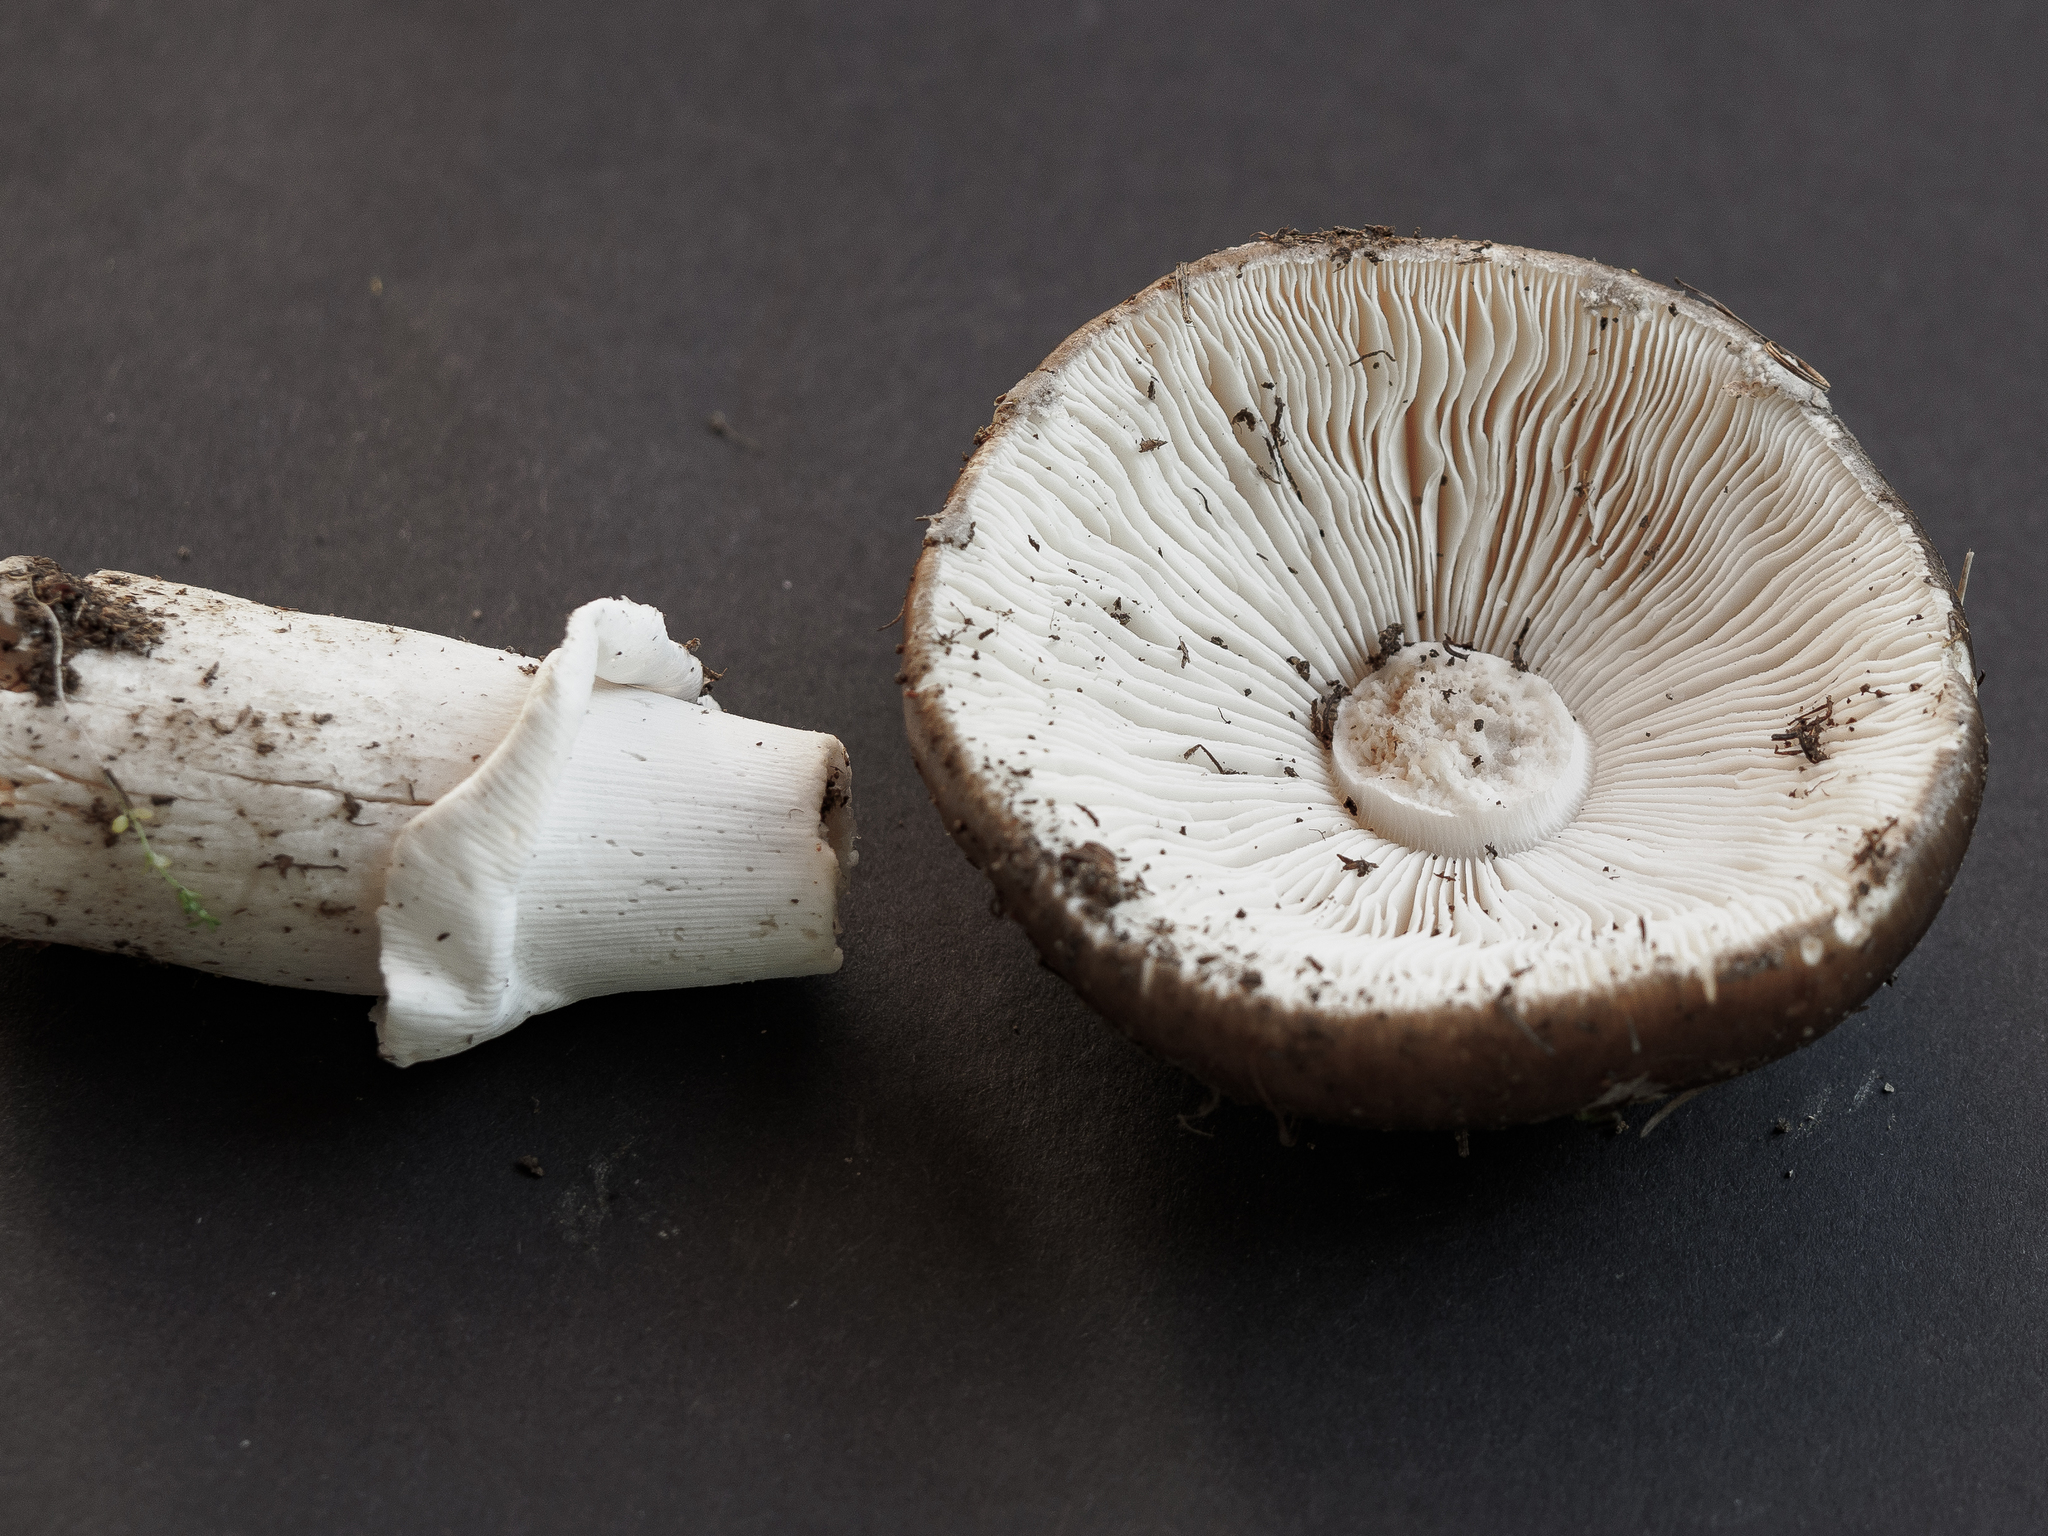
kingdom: Fungi
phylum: Basidiomycota
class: Agaricomycetes
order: Agaricales
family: Amanitaceae
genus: Amanita
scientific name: Amanita excelsa
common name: European false blusher
